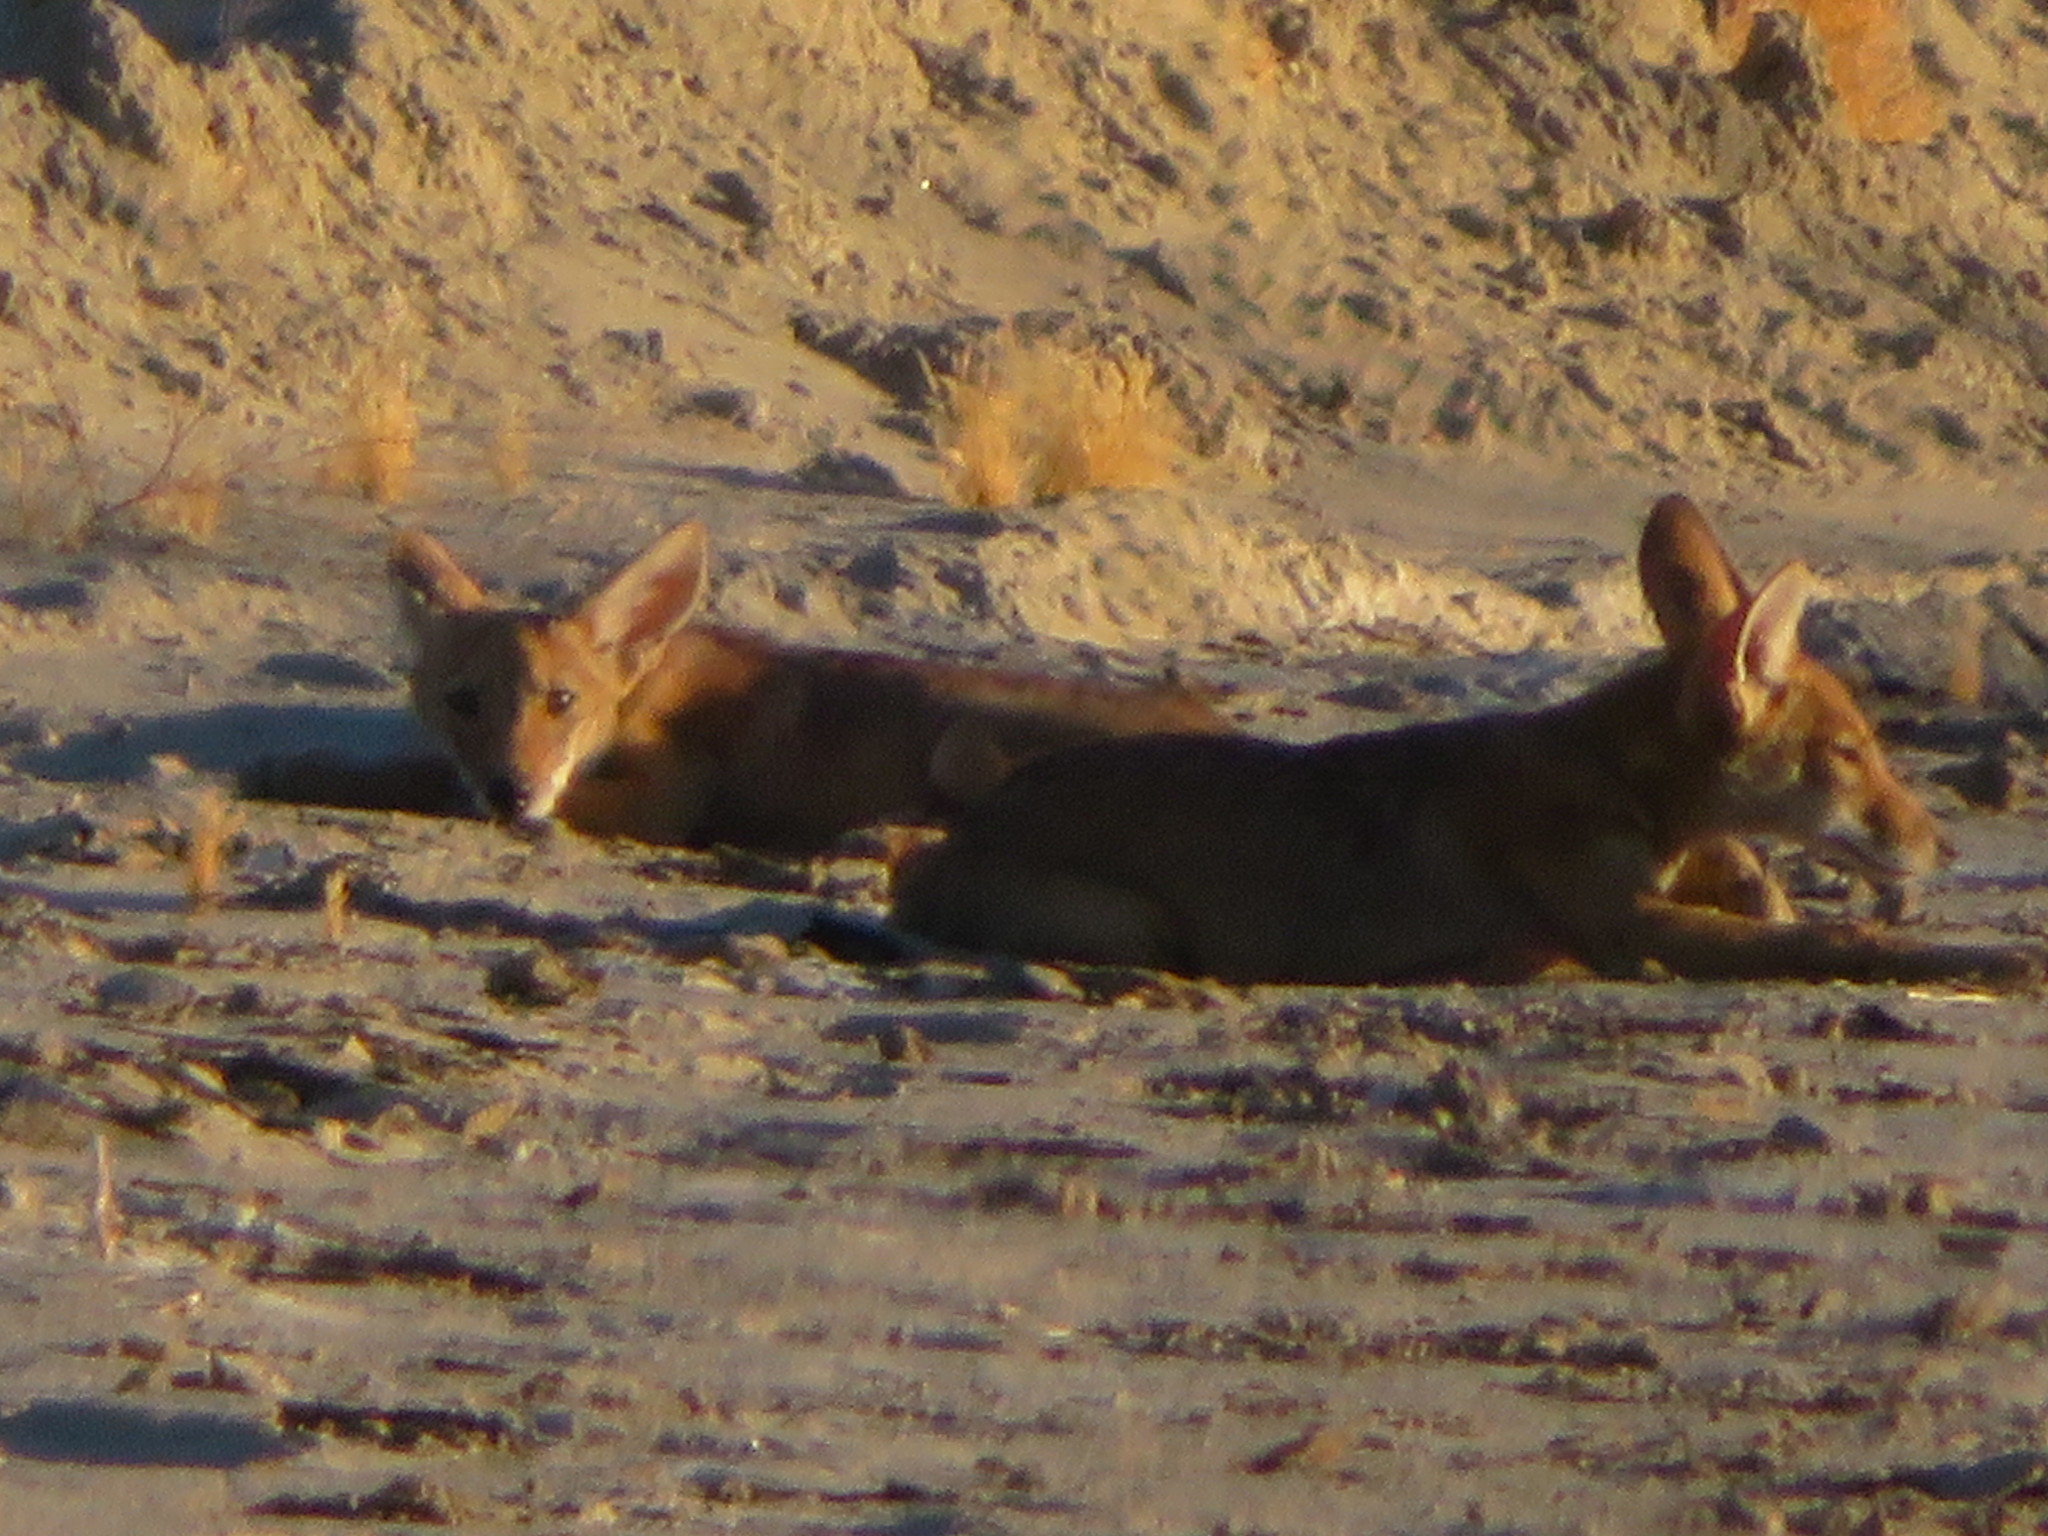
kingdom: Animalia
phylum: Chordata
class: Mammalia
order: Carnivora
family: Canidae
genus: Canis
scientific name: Canis latrans
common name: Coyote
